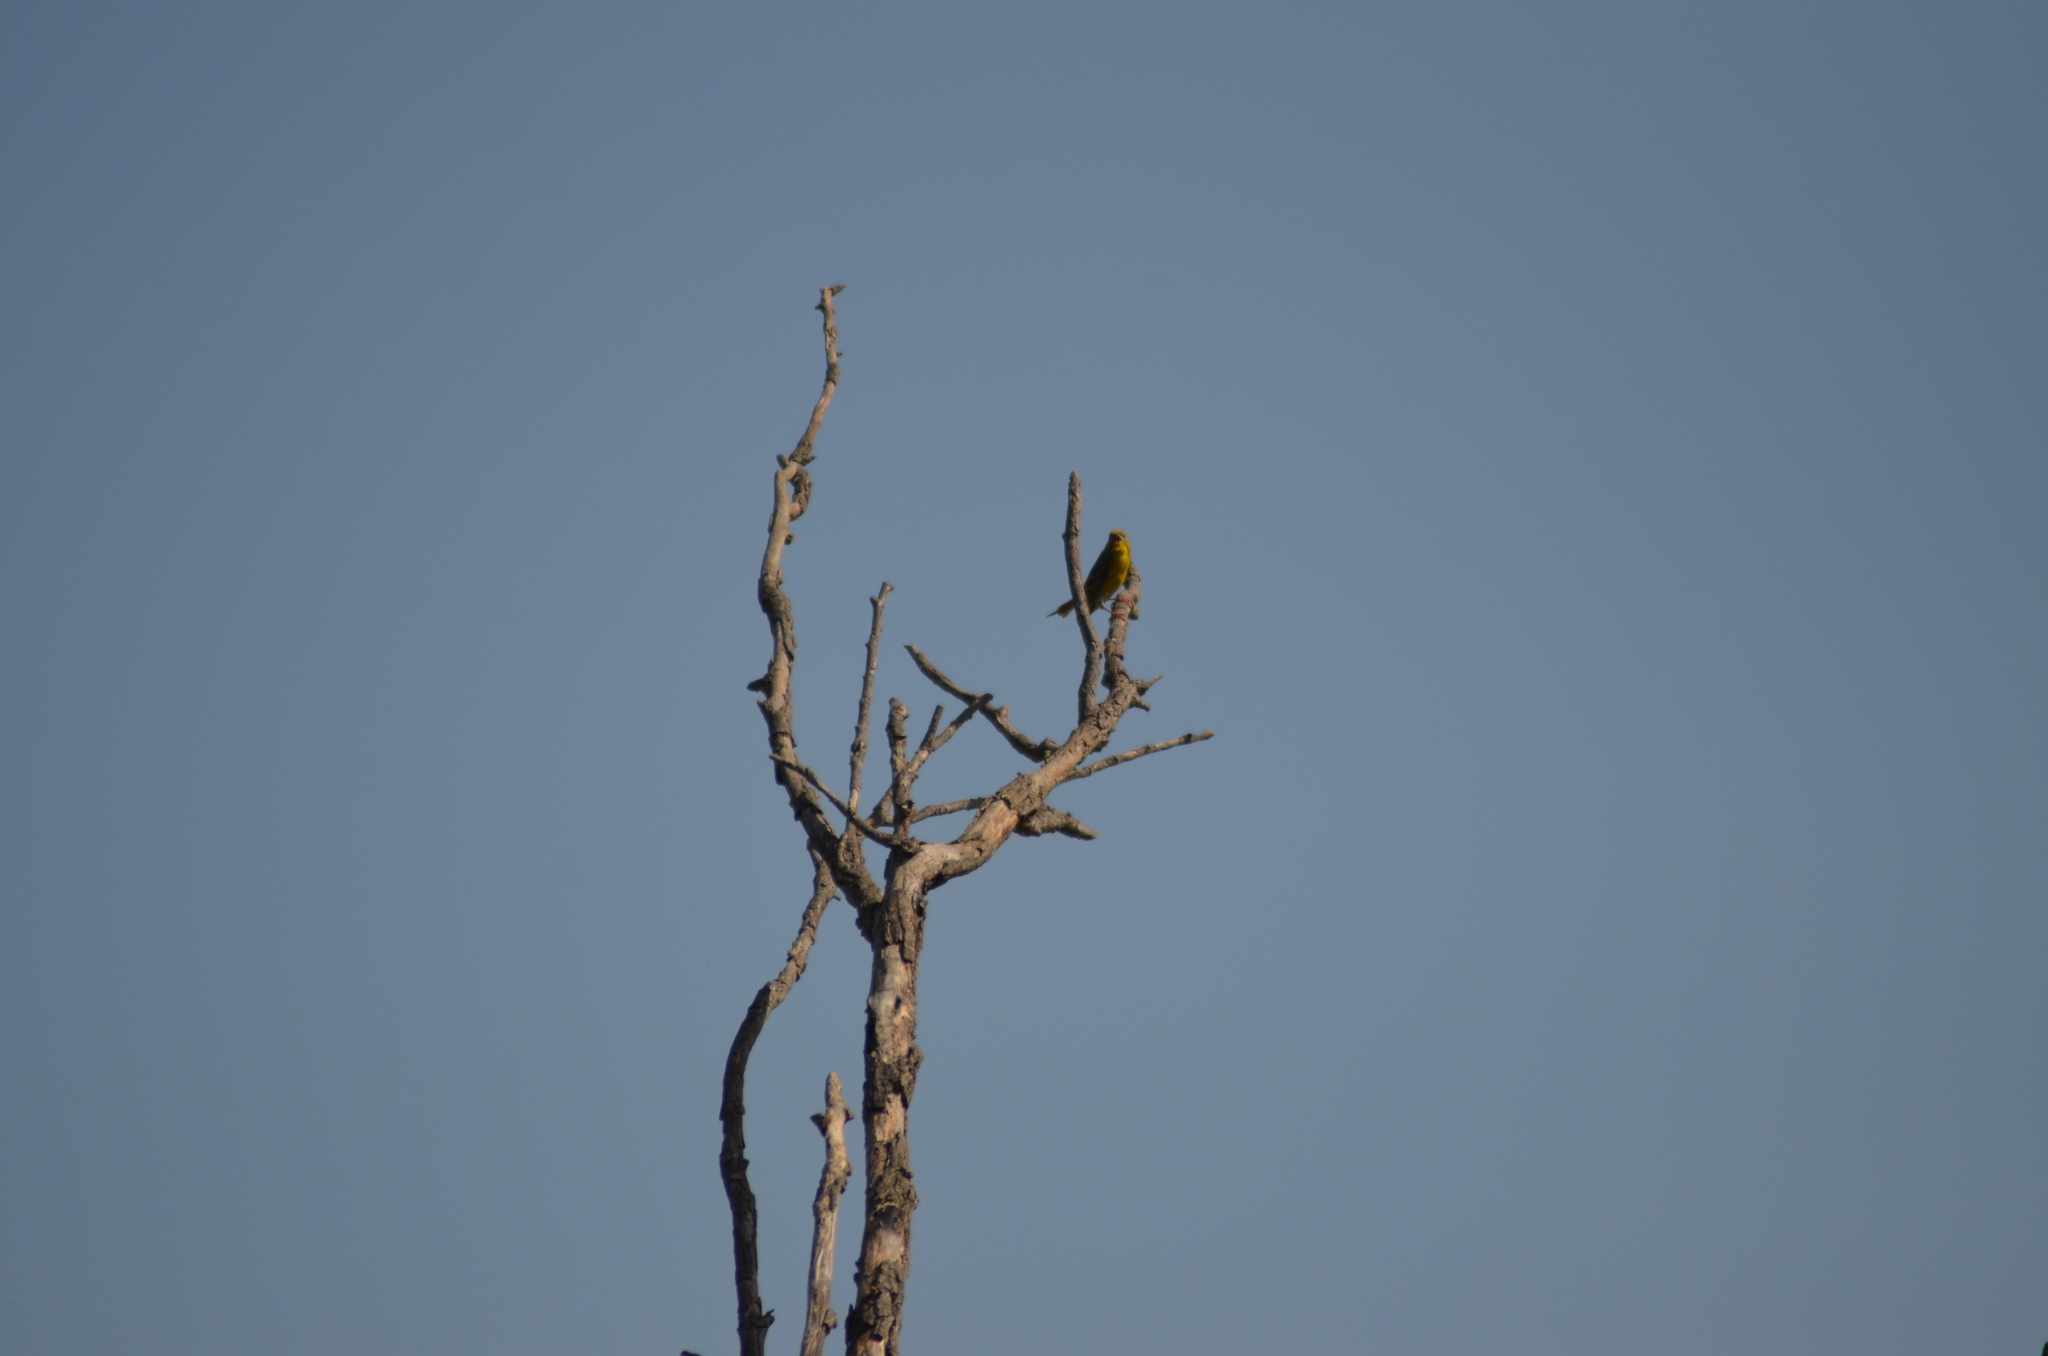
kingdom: Animalia
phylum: Chordata
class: Aves
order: Passeriformes
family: Fringillidae
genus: Serinus
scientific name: Serinus serinus
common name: European serin
